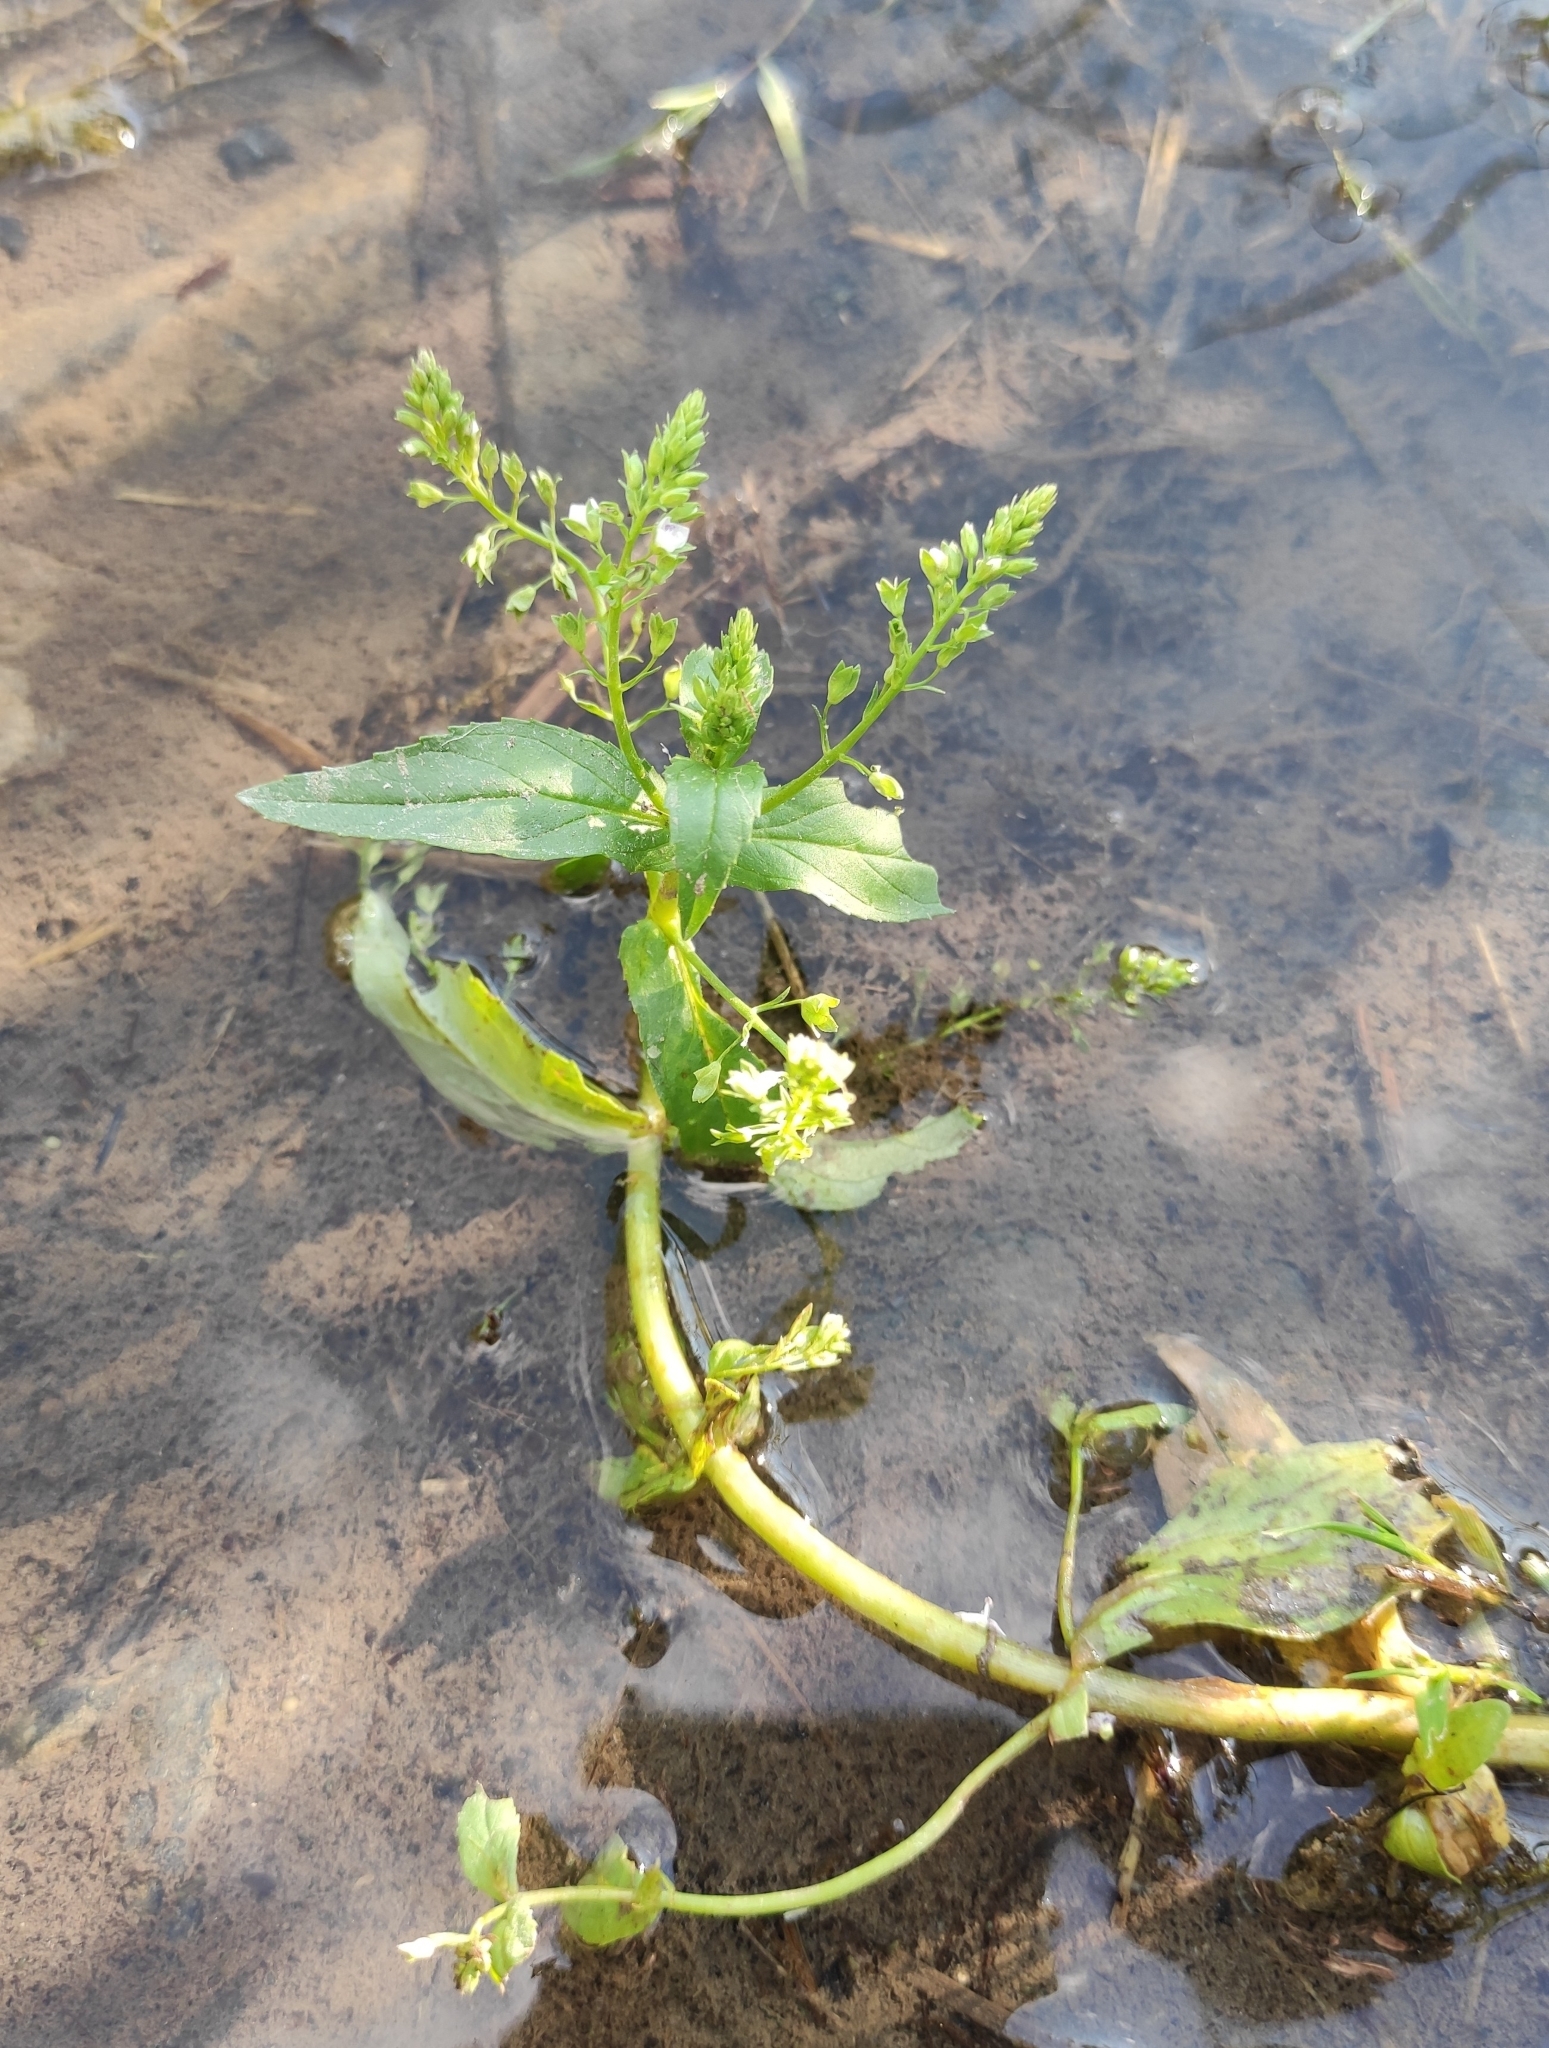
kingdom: Plantae
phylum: Tracheophyta
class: Magnoliopsida
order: Lamiales
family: Plantaginaceae
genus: Veronica
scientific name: Veronica anagallis-aquatica
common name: Water speedwell
